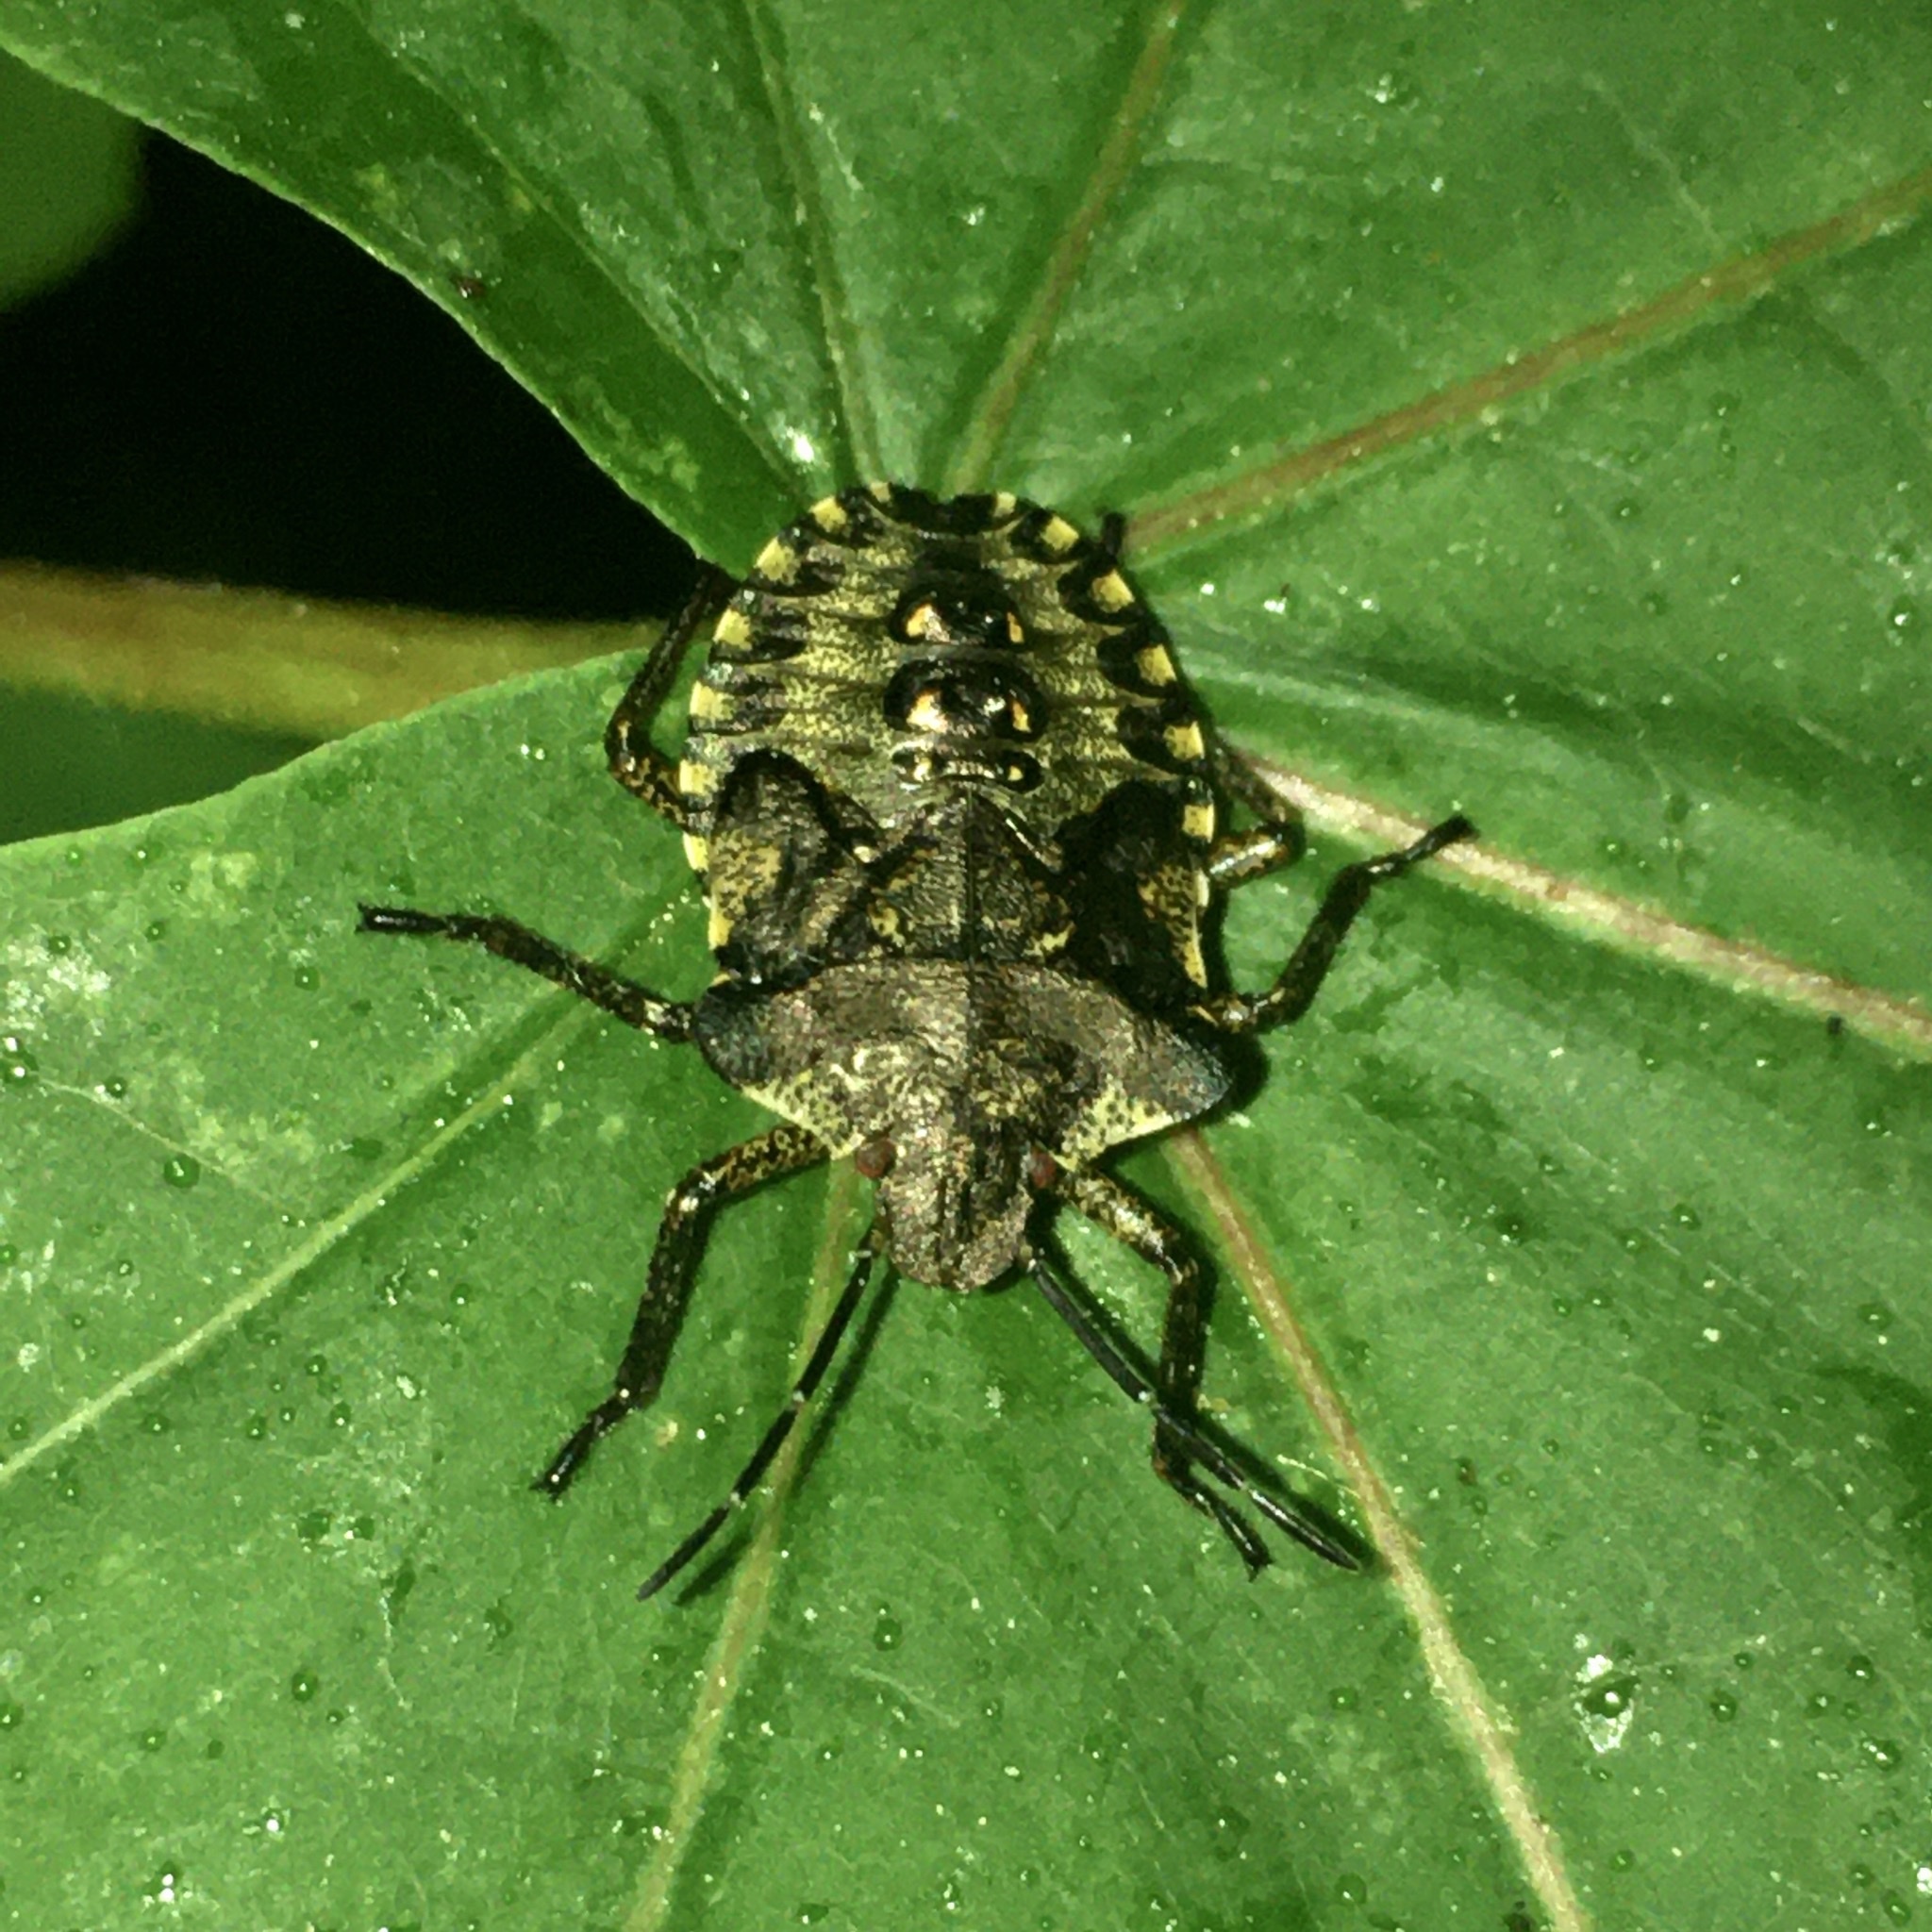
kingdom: Animalia
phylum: Arthropoda
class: Insecta
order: Hemiptera
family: Pentatomidae
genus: Pentatoma
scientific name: Pentatoma rufipes
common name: Forest bug
